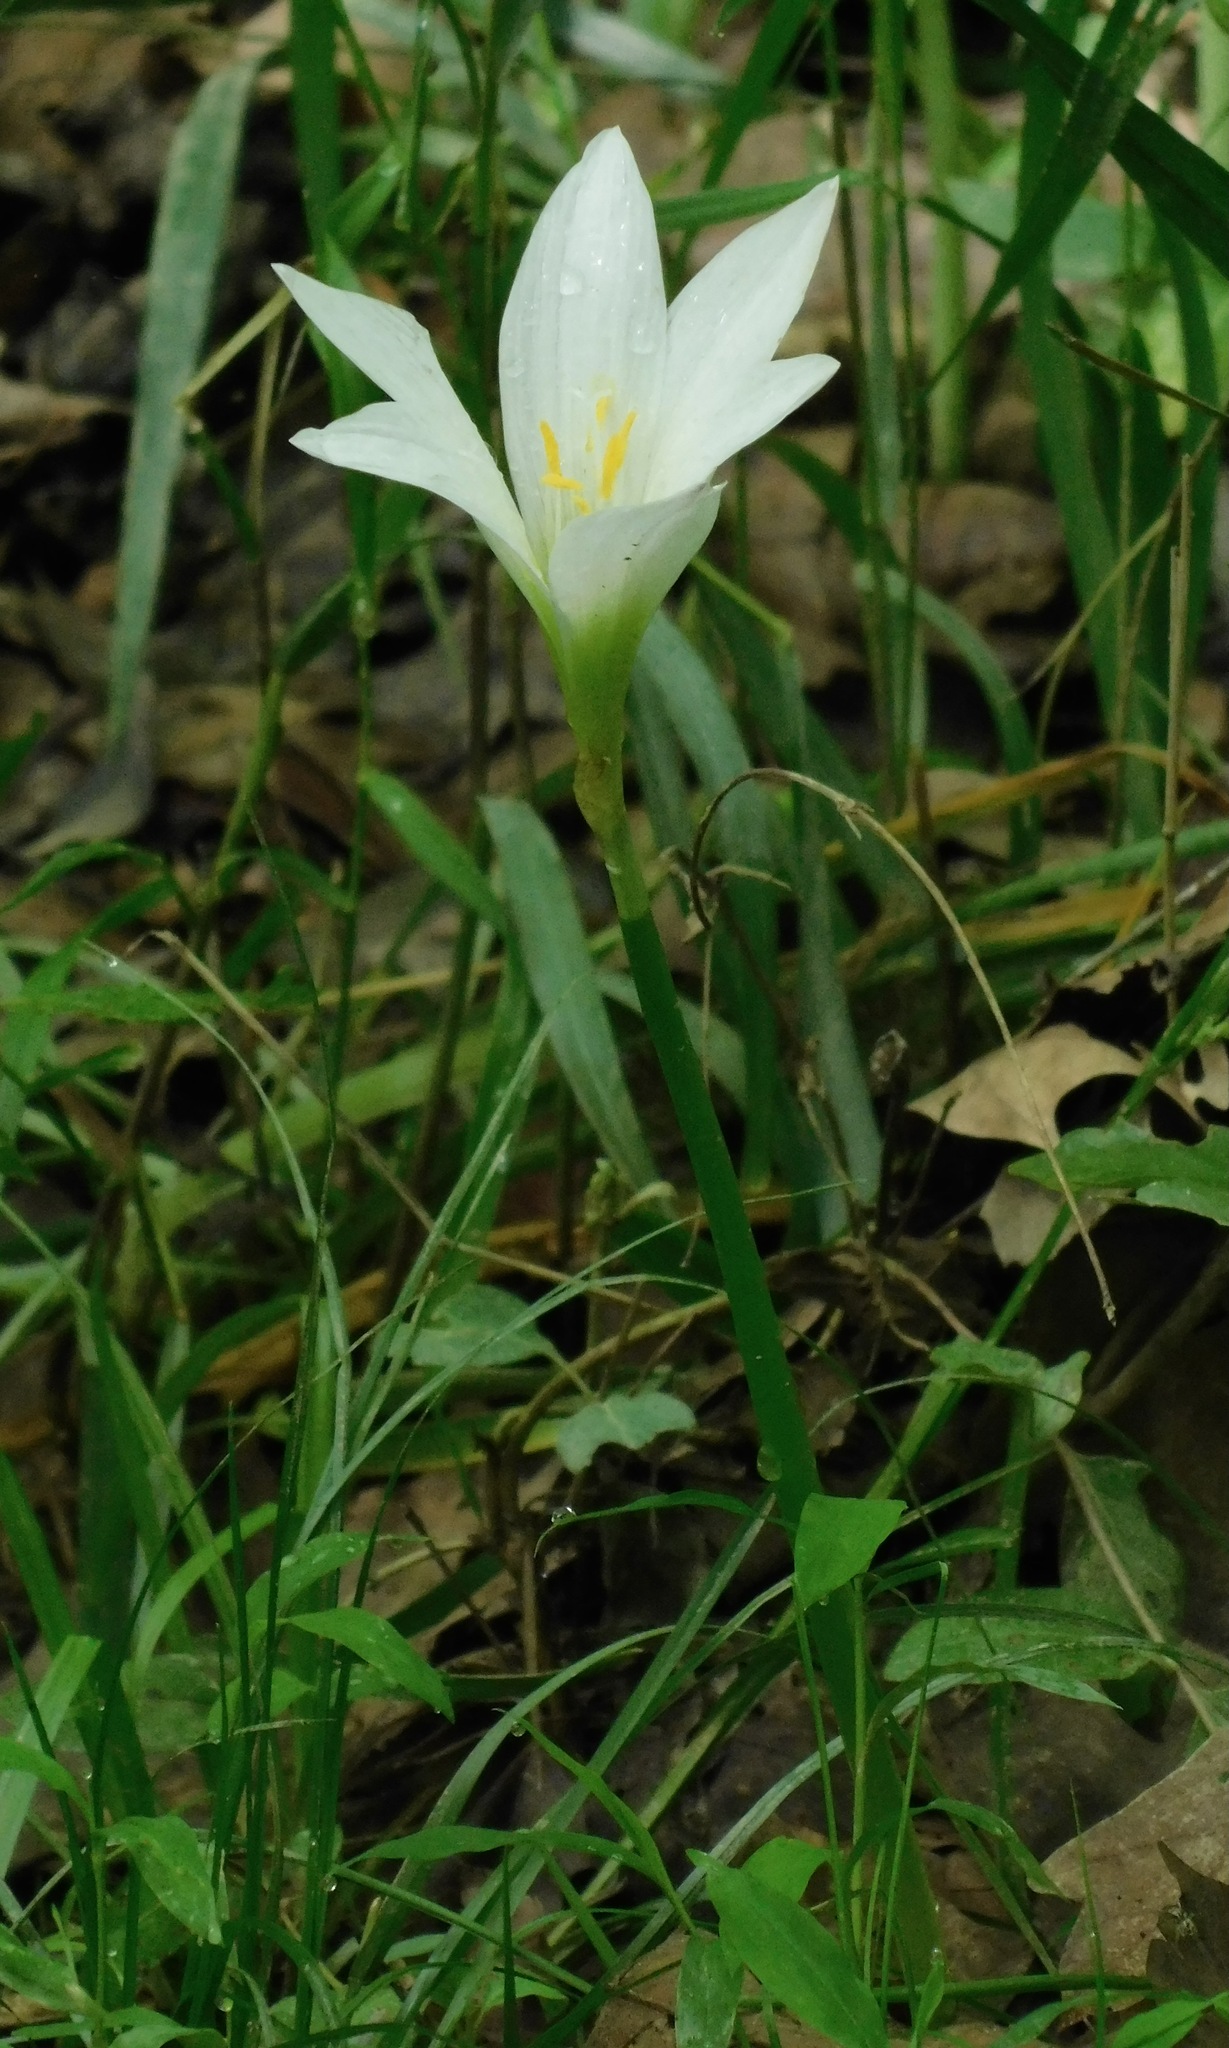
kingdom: Plantae
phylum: Tracheophyta
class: Liliopsida
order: Asparagales
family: Amaryllidaceae
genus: Zephyranthes
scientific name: Zephyranthes atamasco
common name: Atamasco lily
